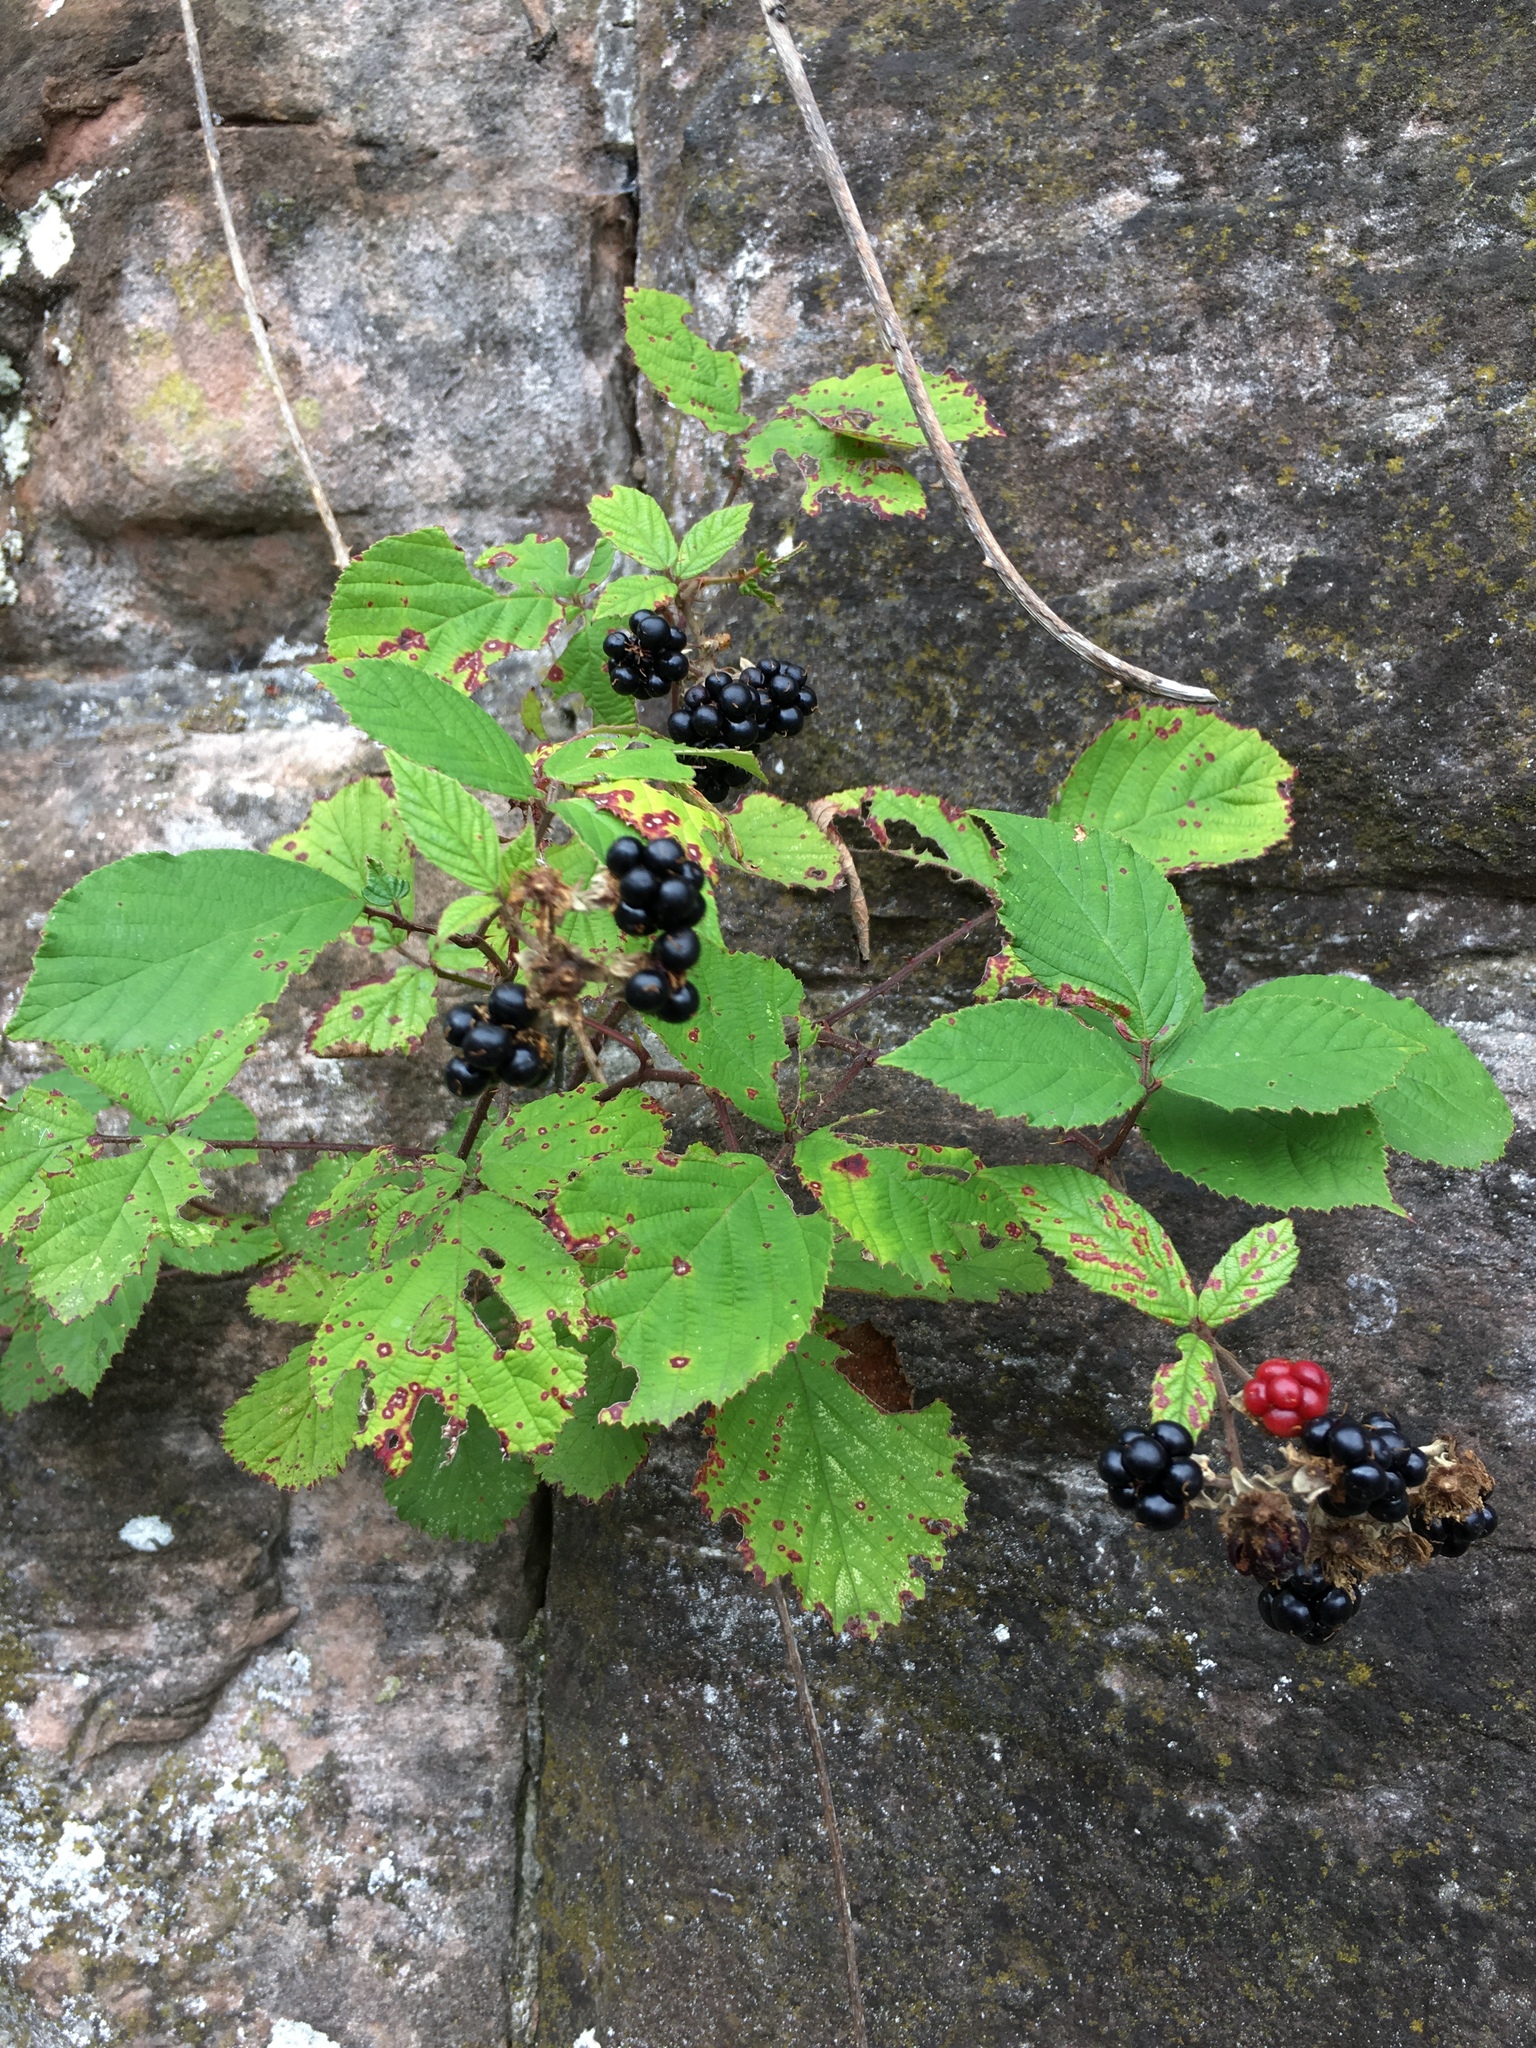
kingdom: Plantae
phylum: Tracheophyta
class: Magnoliopsida
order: Rosales
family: Rosaceae
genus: Rubus
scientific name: Rubus caesius
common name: Dewberry
